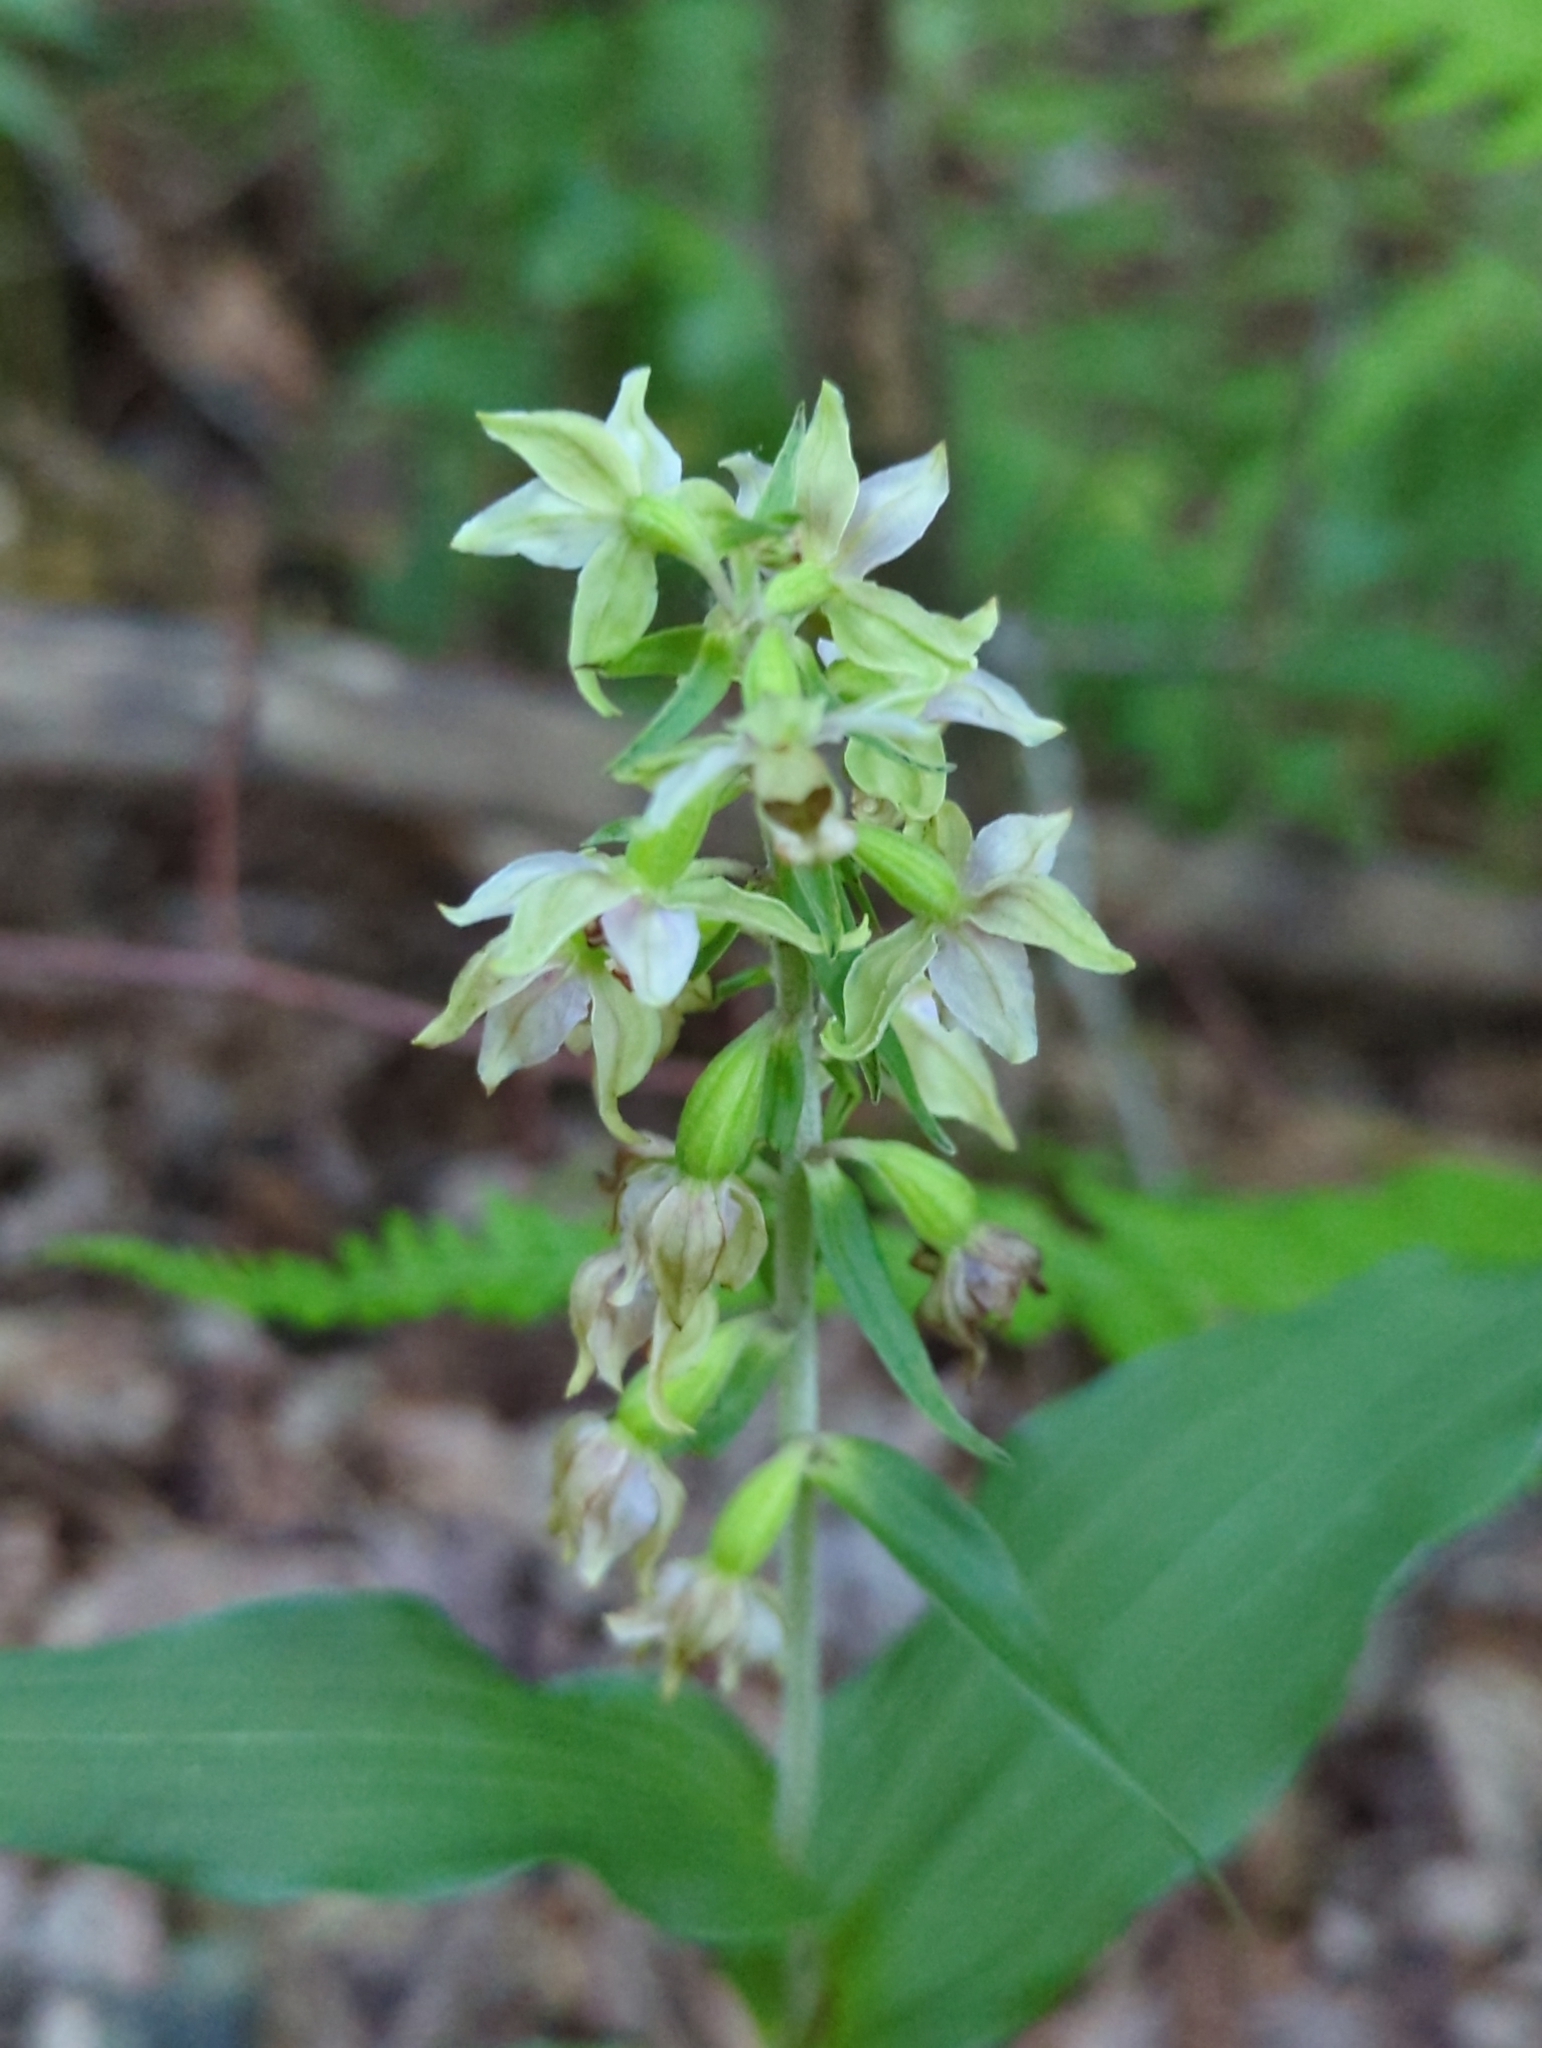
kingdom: Plantae
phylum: Tracheophyta
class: Liliopsida
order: Asparagales
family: Orchidaceae
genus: Epipactis
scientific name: Epipactis helleborine
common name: Broad-leaved helleborine
